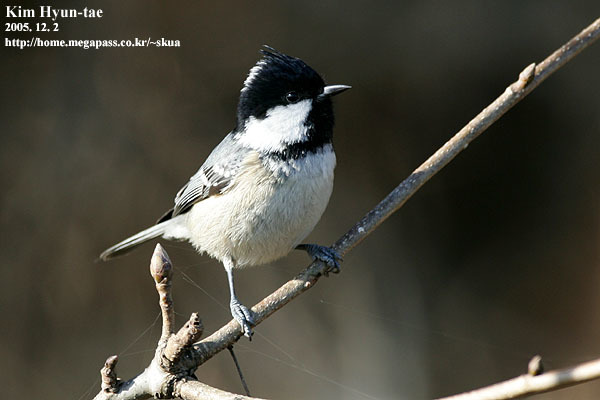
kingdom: Animalia
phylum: Chordata
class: Aves
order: Passeriformes
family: Paridae
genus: Periparus
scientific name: Periparus ater
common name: Coal tit
